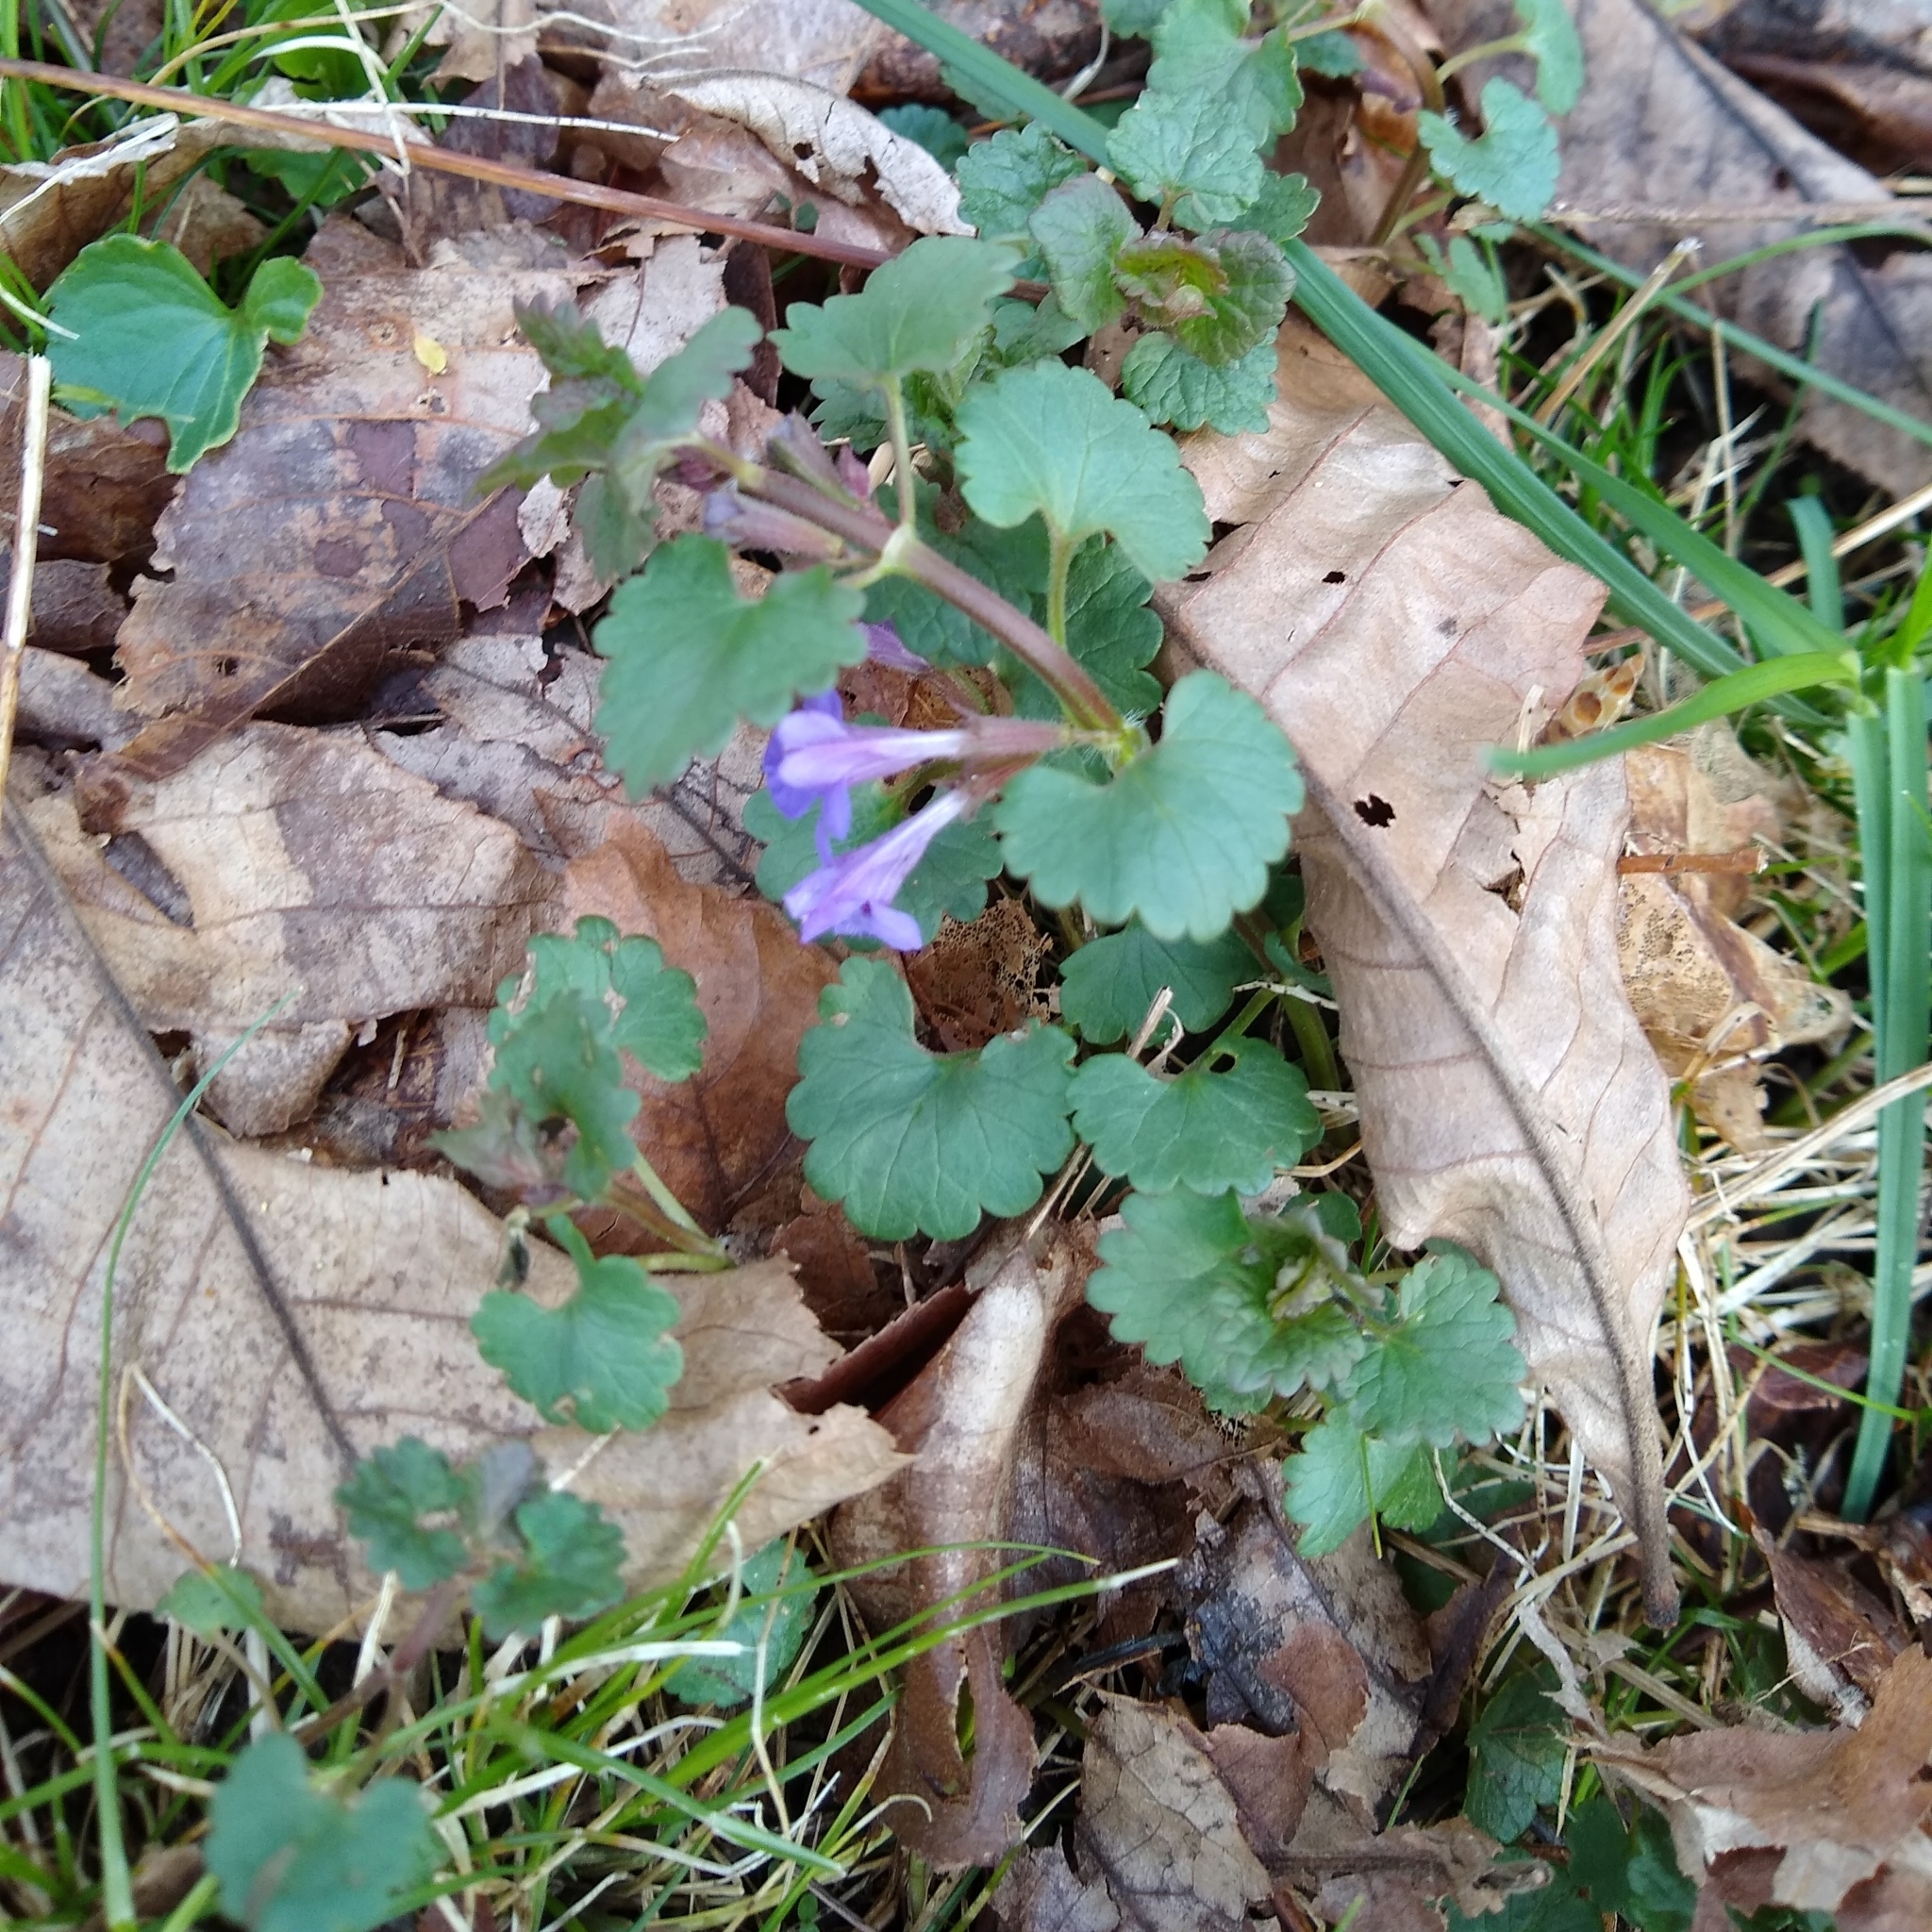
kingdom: Plantae
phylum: Tracheophyta
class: Magnoliopsida
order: Lamiales
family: Lamiaceae
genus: Glechoma
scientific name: Glechoma hederacea
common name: Ground ivy
